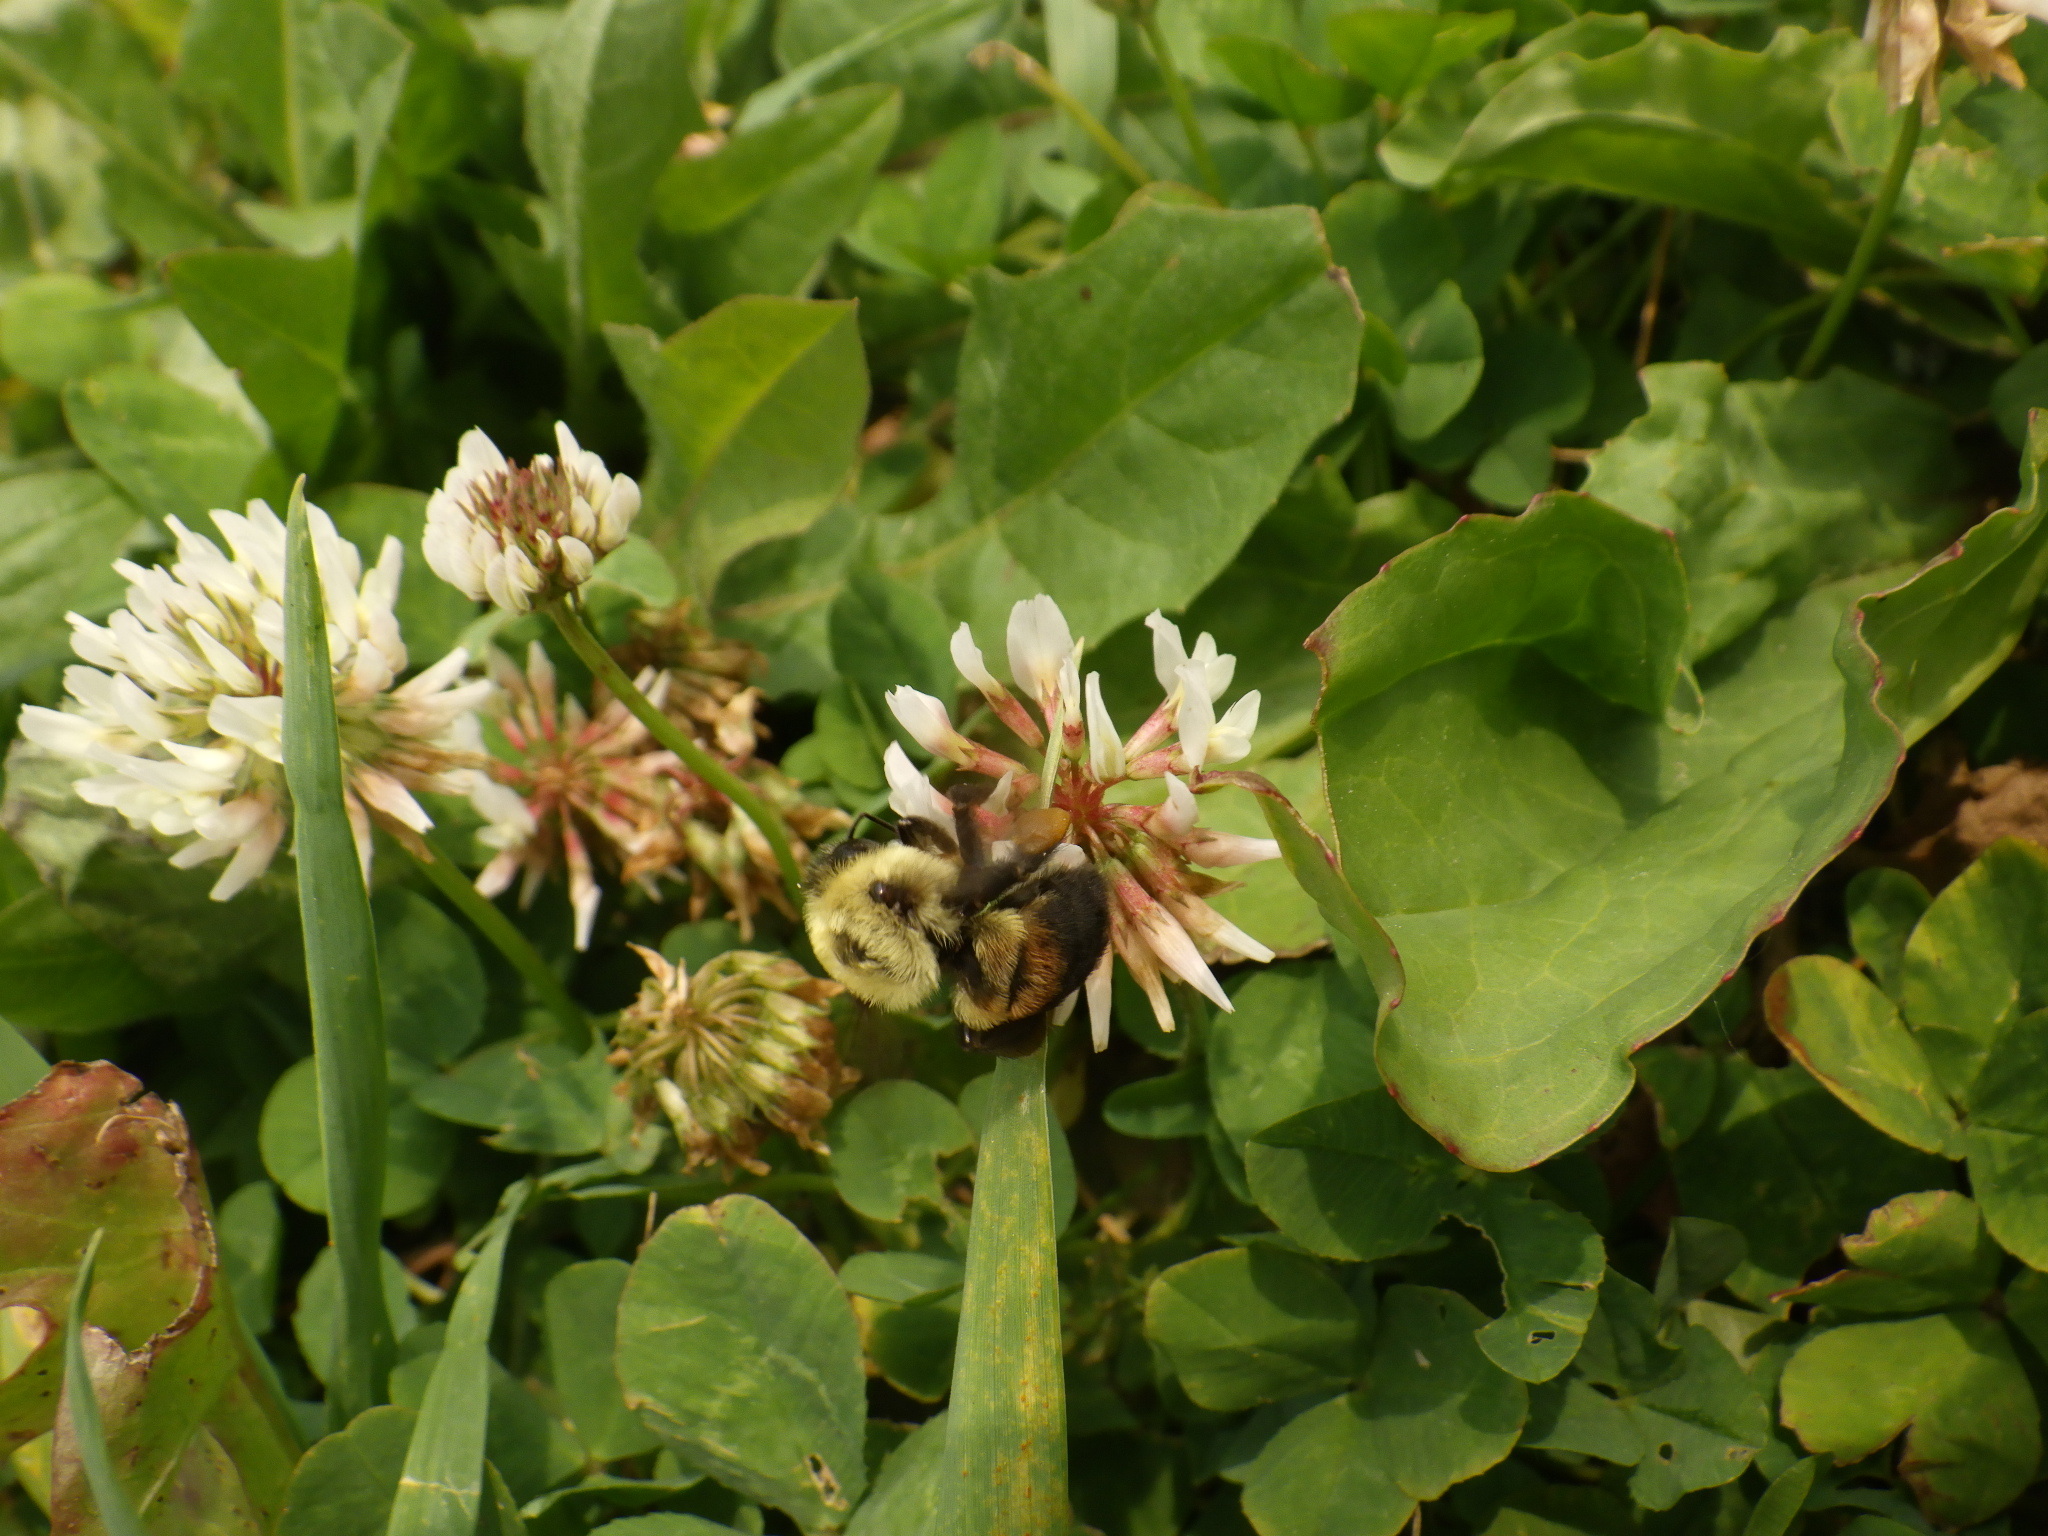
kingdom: Animalia
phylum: Arthropoda
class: Insecta
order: Hymenoptera
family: Apidae
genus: Bombus
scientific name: Bombus griseocollis
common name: Brown-belted bumble bee
